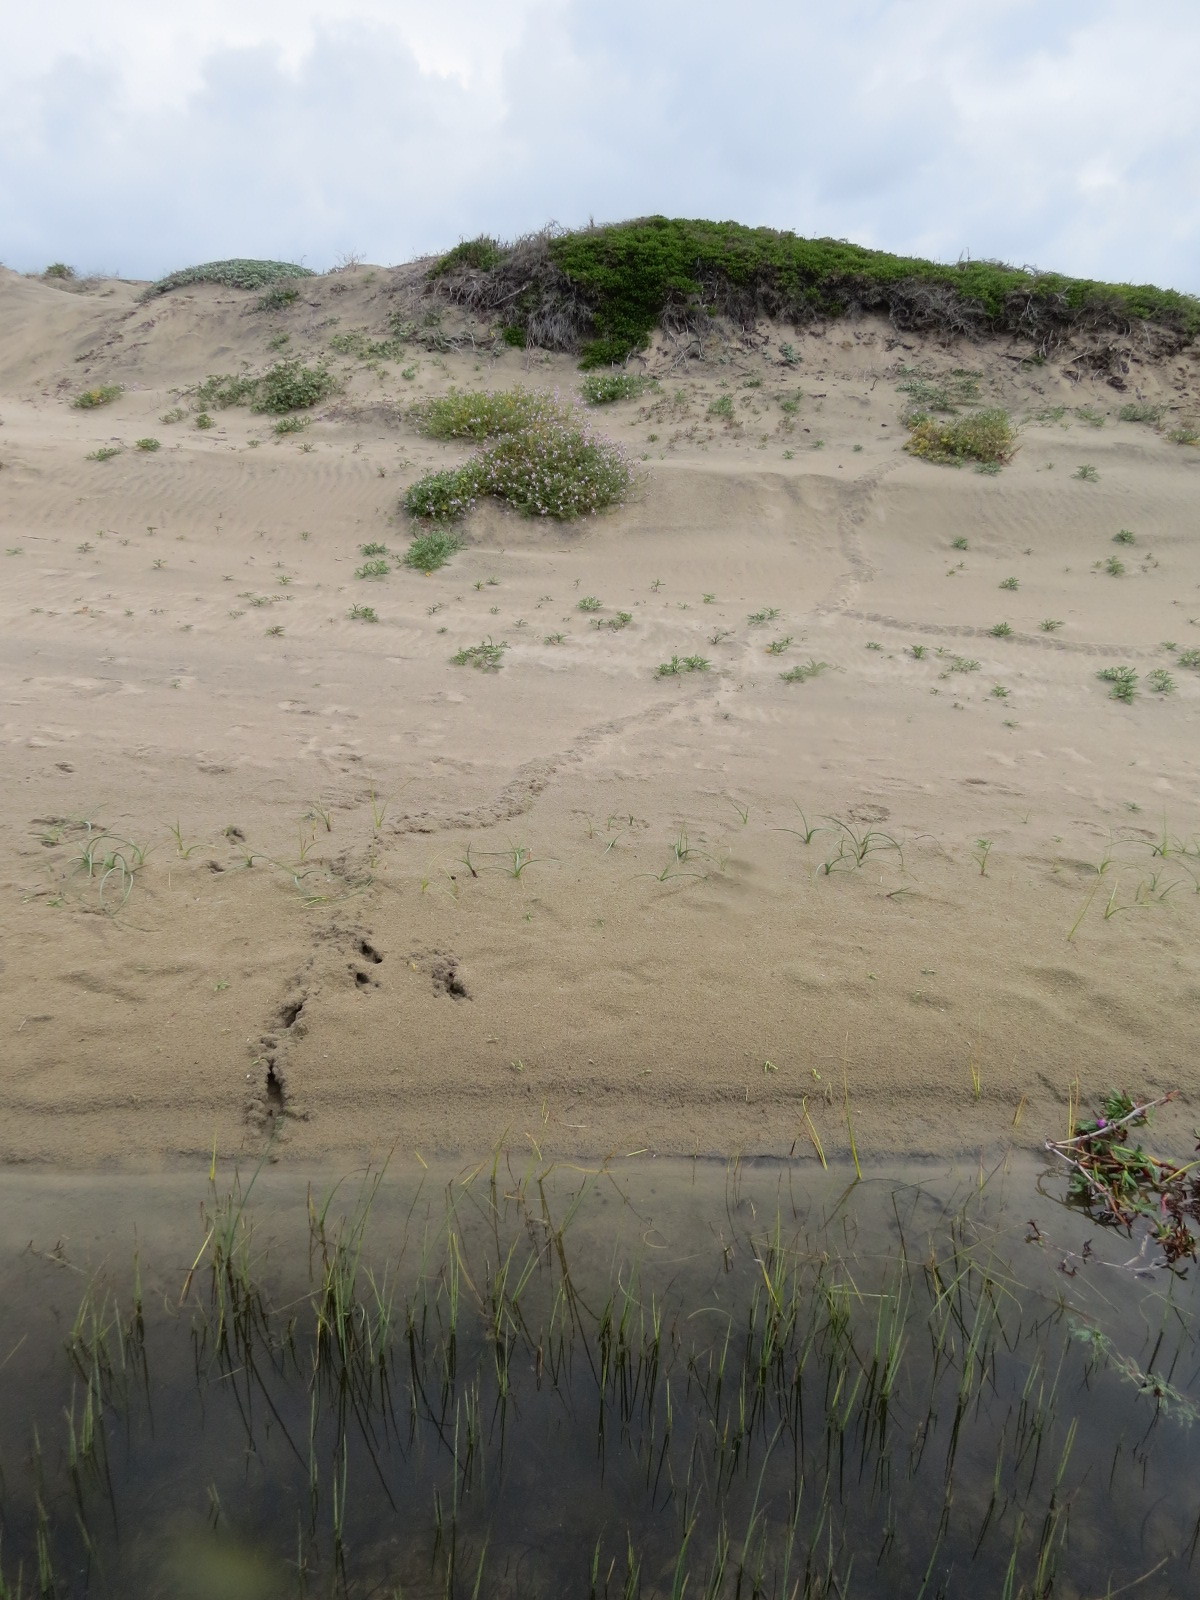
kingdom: Animalia
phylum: Chordata
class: Mammalia
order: Soricomorpha
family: Talpidae
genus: Scapanus
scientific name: Scapanus latimanus
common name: Broad-footed mole
